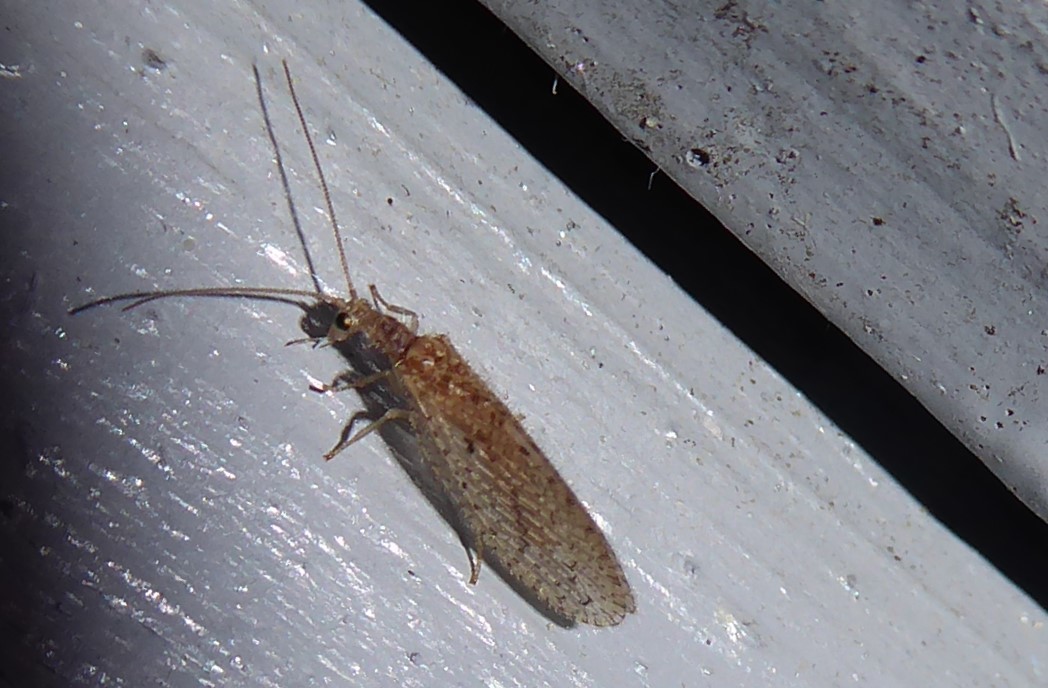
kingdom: Animalia
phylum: Arthropoda
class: Insecta
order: Neuroptera
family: Hemerobiidae
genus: Micromus
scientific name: Micromus tasmaniae
